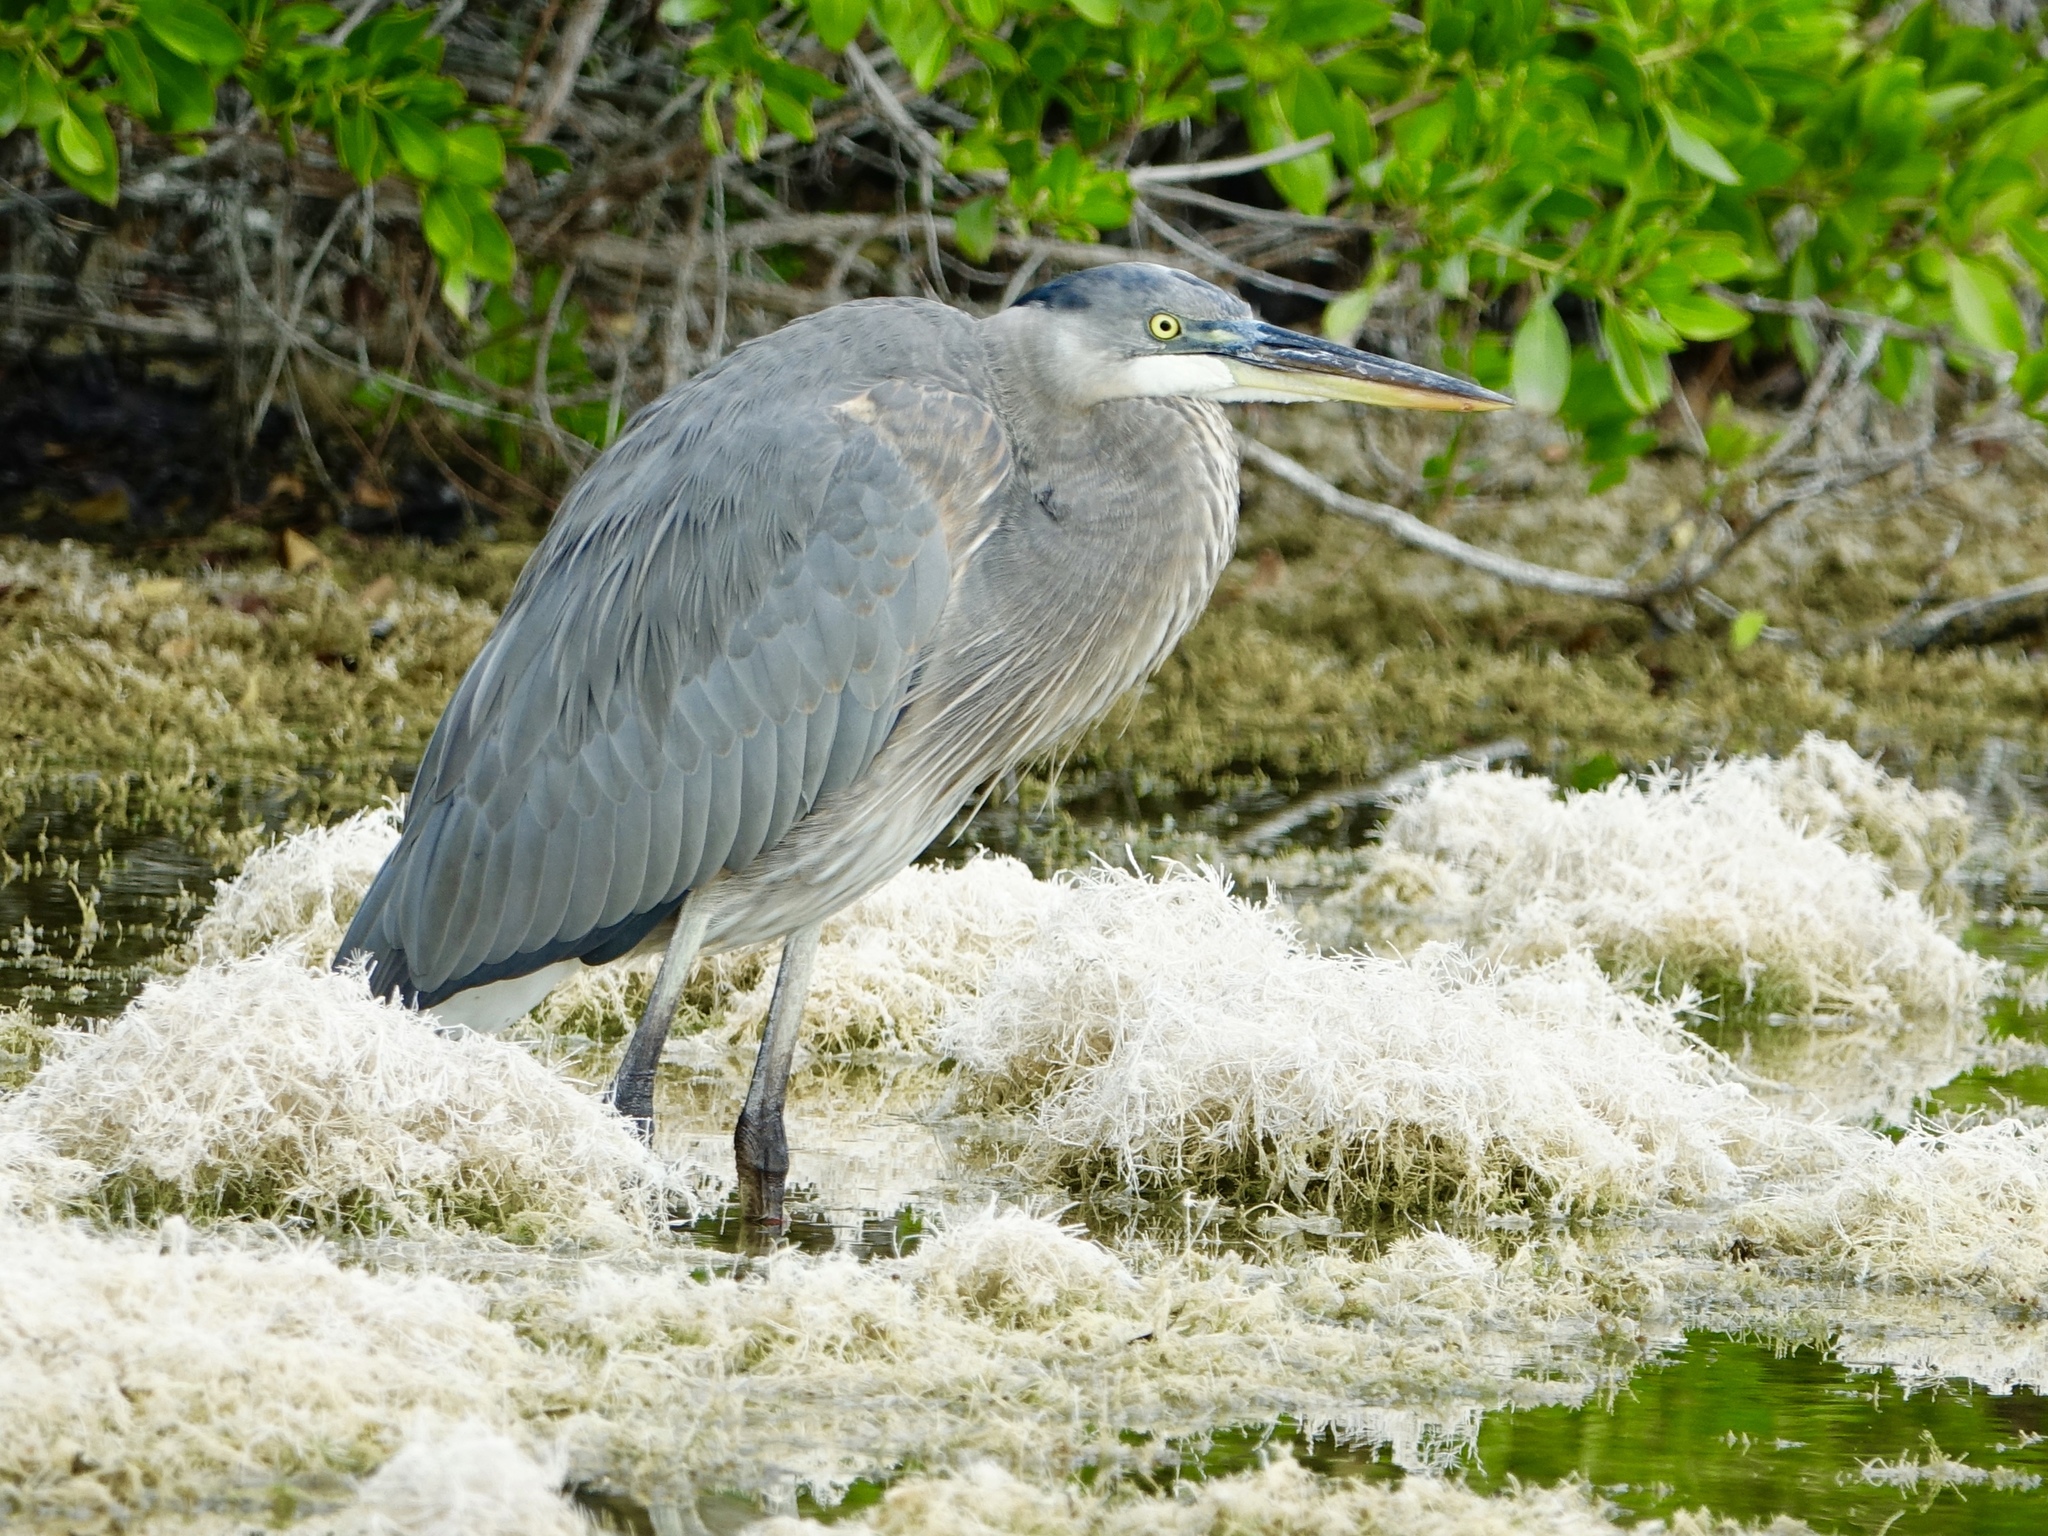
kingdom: Animalia
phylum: Chordata
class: Aves
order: Pelecaniformes
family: Ardeidae
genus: Ardea
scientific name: Ardea herodias
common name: Great blue heron
